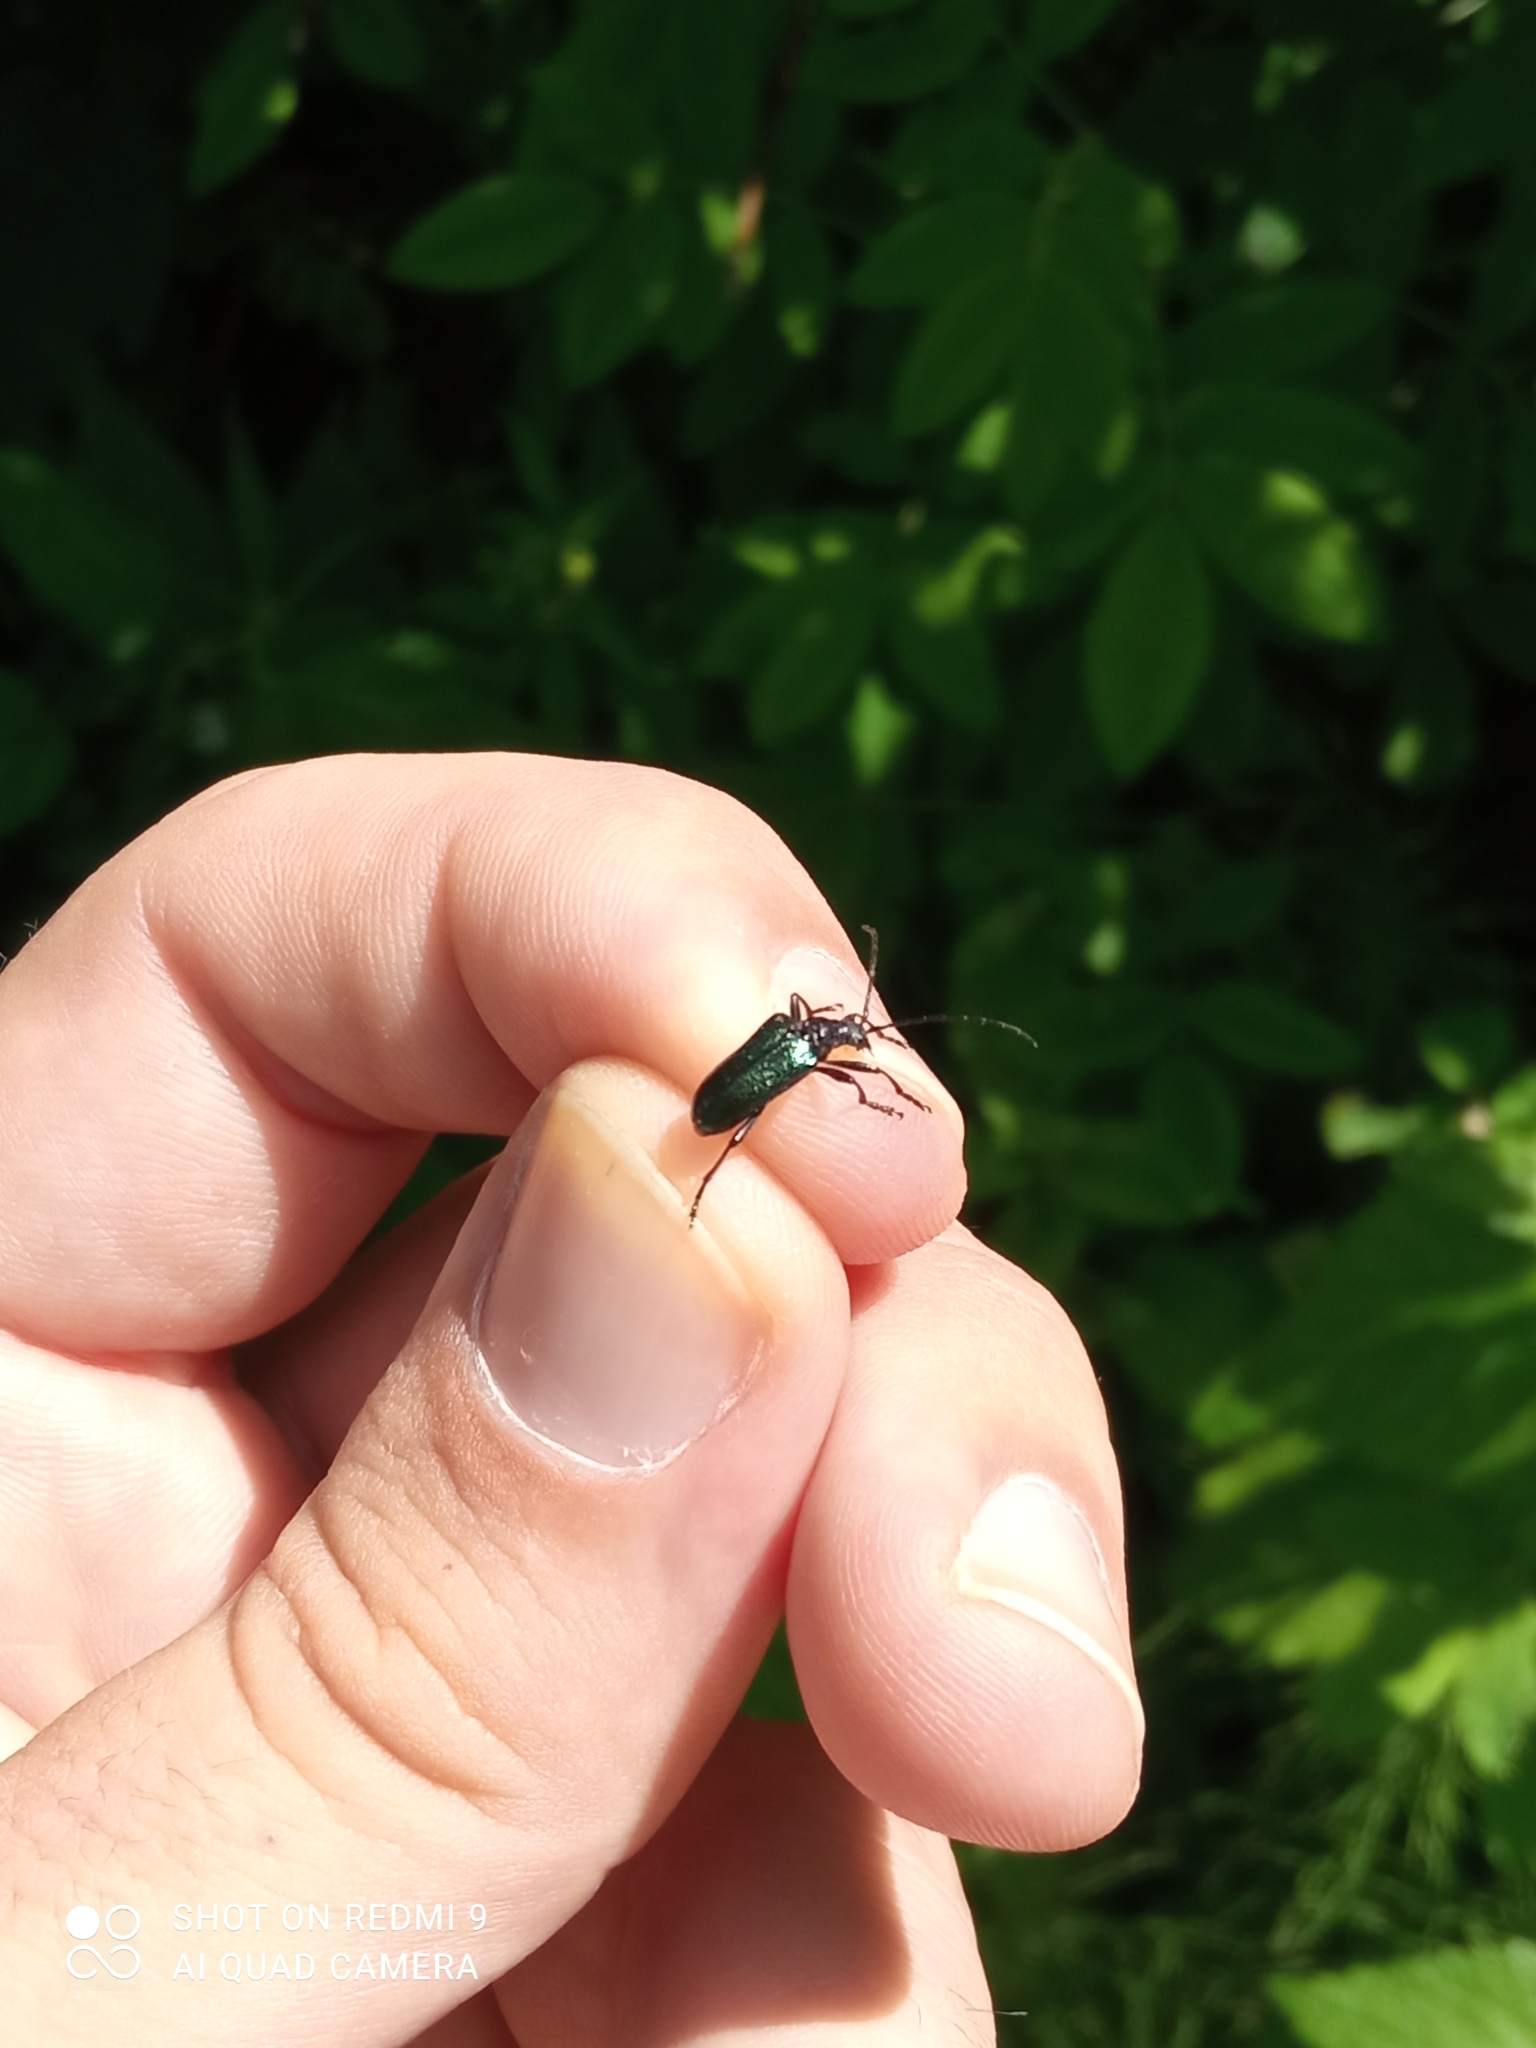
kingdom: Animalia
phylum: Arthropoda
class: Insecta
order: Coleoptera
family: Cerambycidae
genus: Gaurotes
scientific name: Gaurotes virginea
